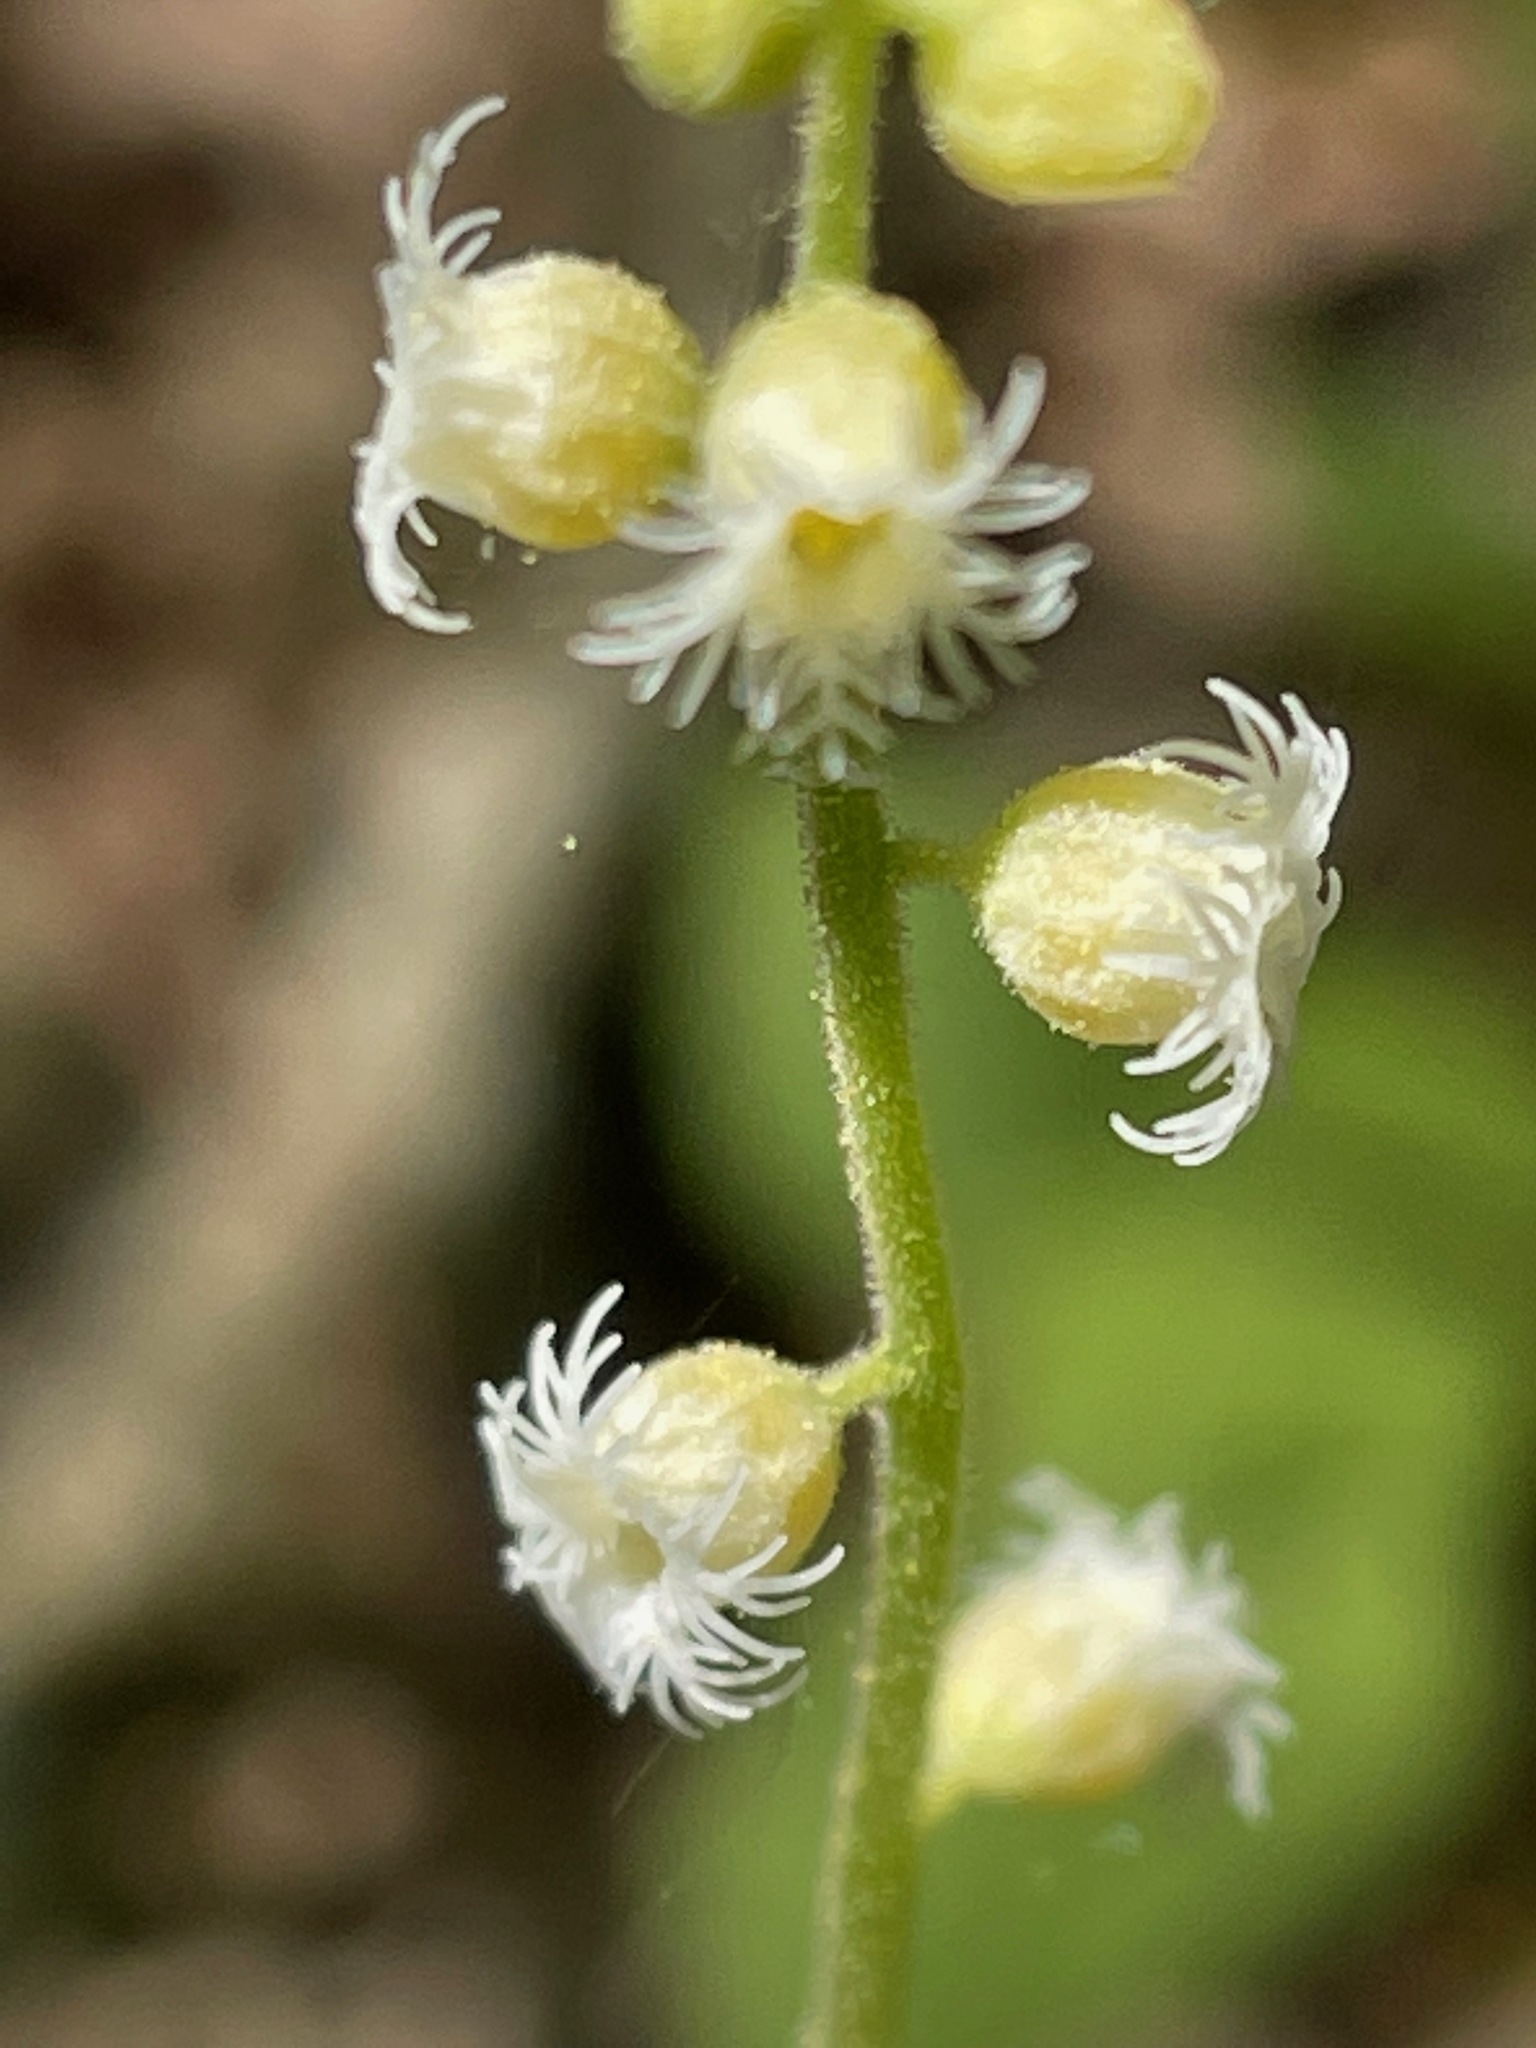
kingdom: Plantae
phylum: Tracheophyta
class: Magnoliopsida
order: Saxifragales
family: Saxifragaceae
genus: Mitella
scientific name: Mitella diphylla
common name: Coolwort
